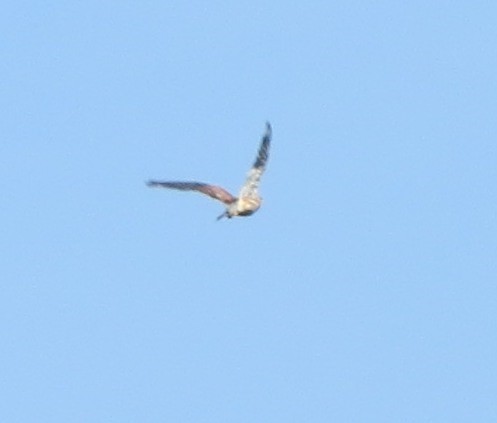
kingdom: Animalia
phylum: Chordata
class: Aves
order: Falconiformes
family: Falconidae
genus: Falco
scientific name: Falco tinnunculus
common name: Common kestrel
